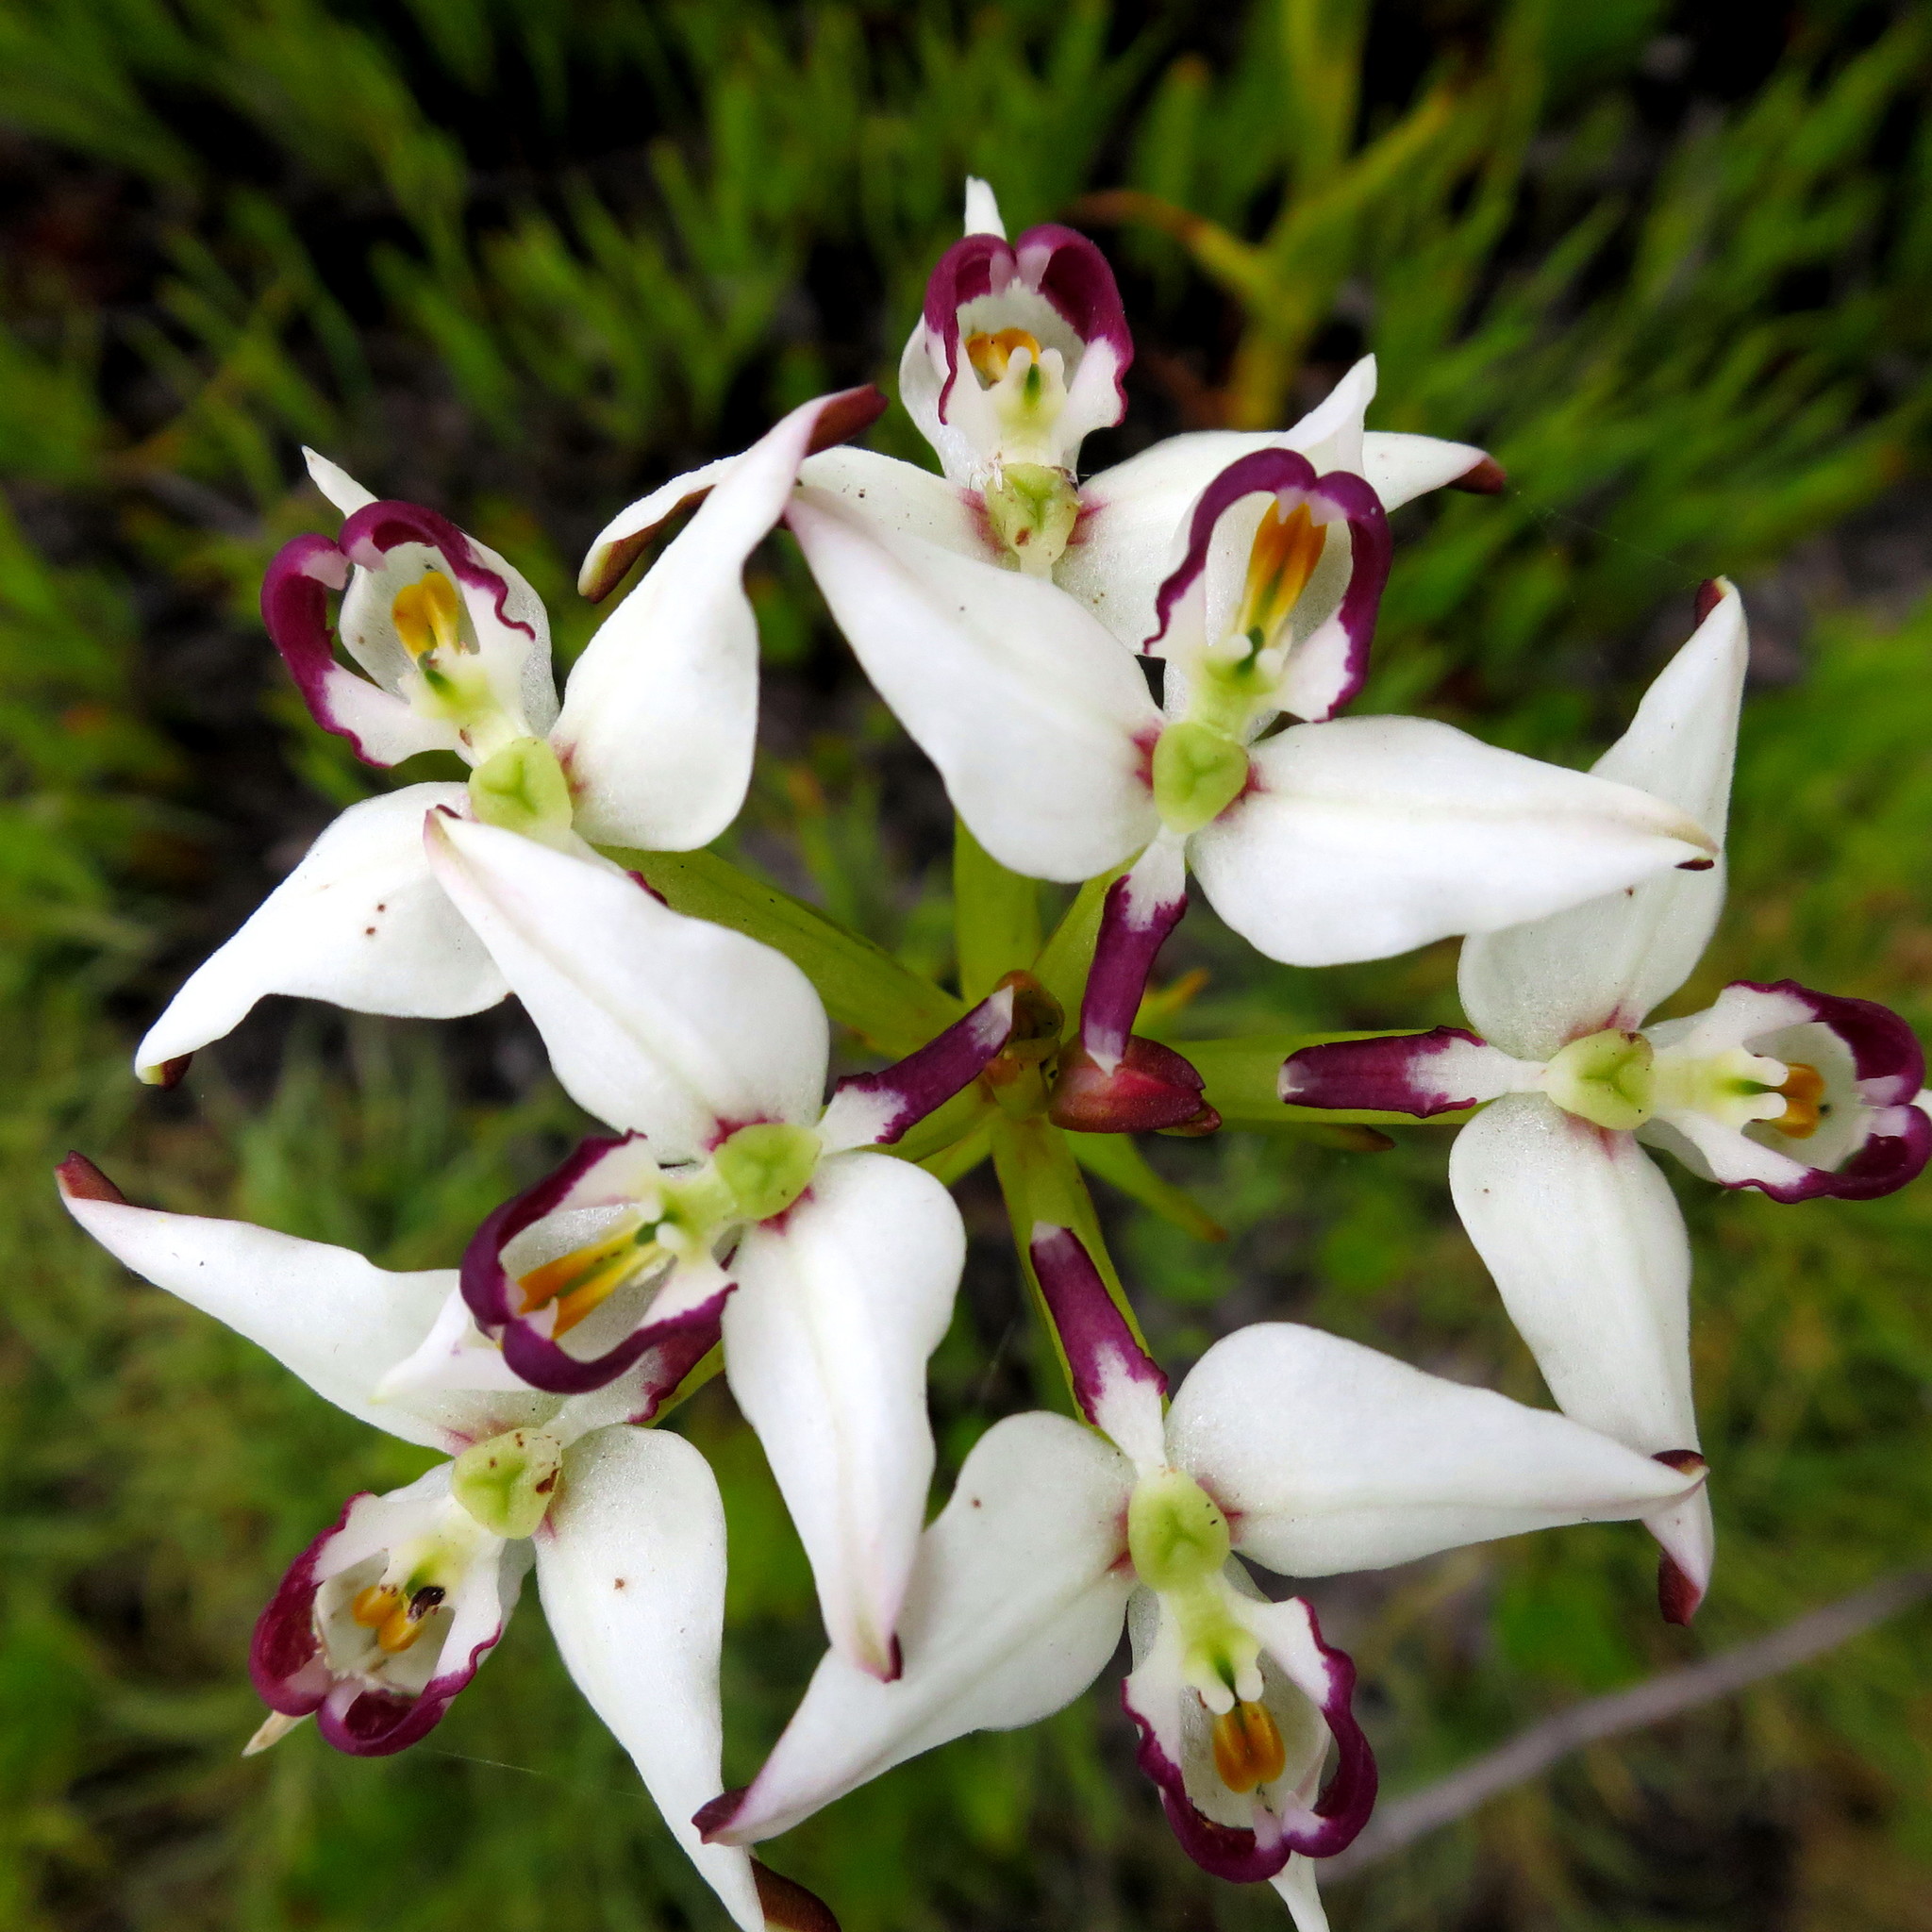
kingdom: Plantae
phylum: Tracheophyta
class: Liliopsida
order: Asparagales
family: Orchidaceae
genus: Disa
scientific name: Disa bivalvata
